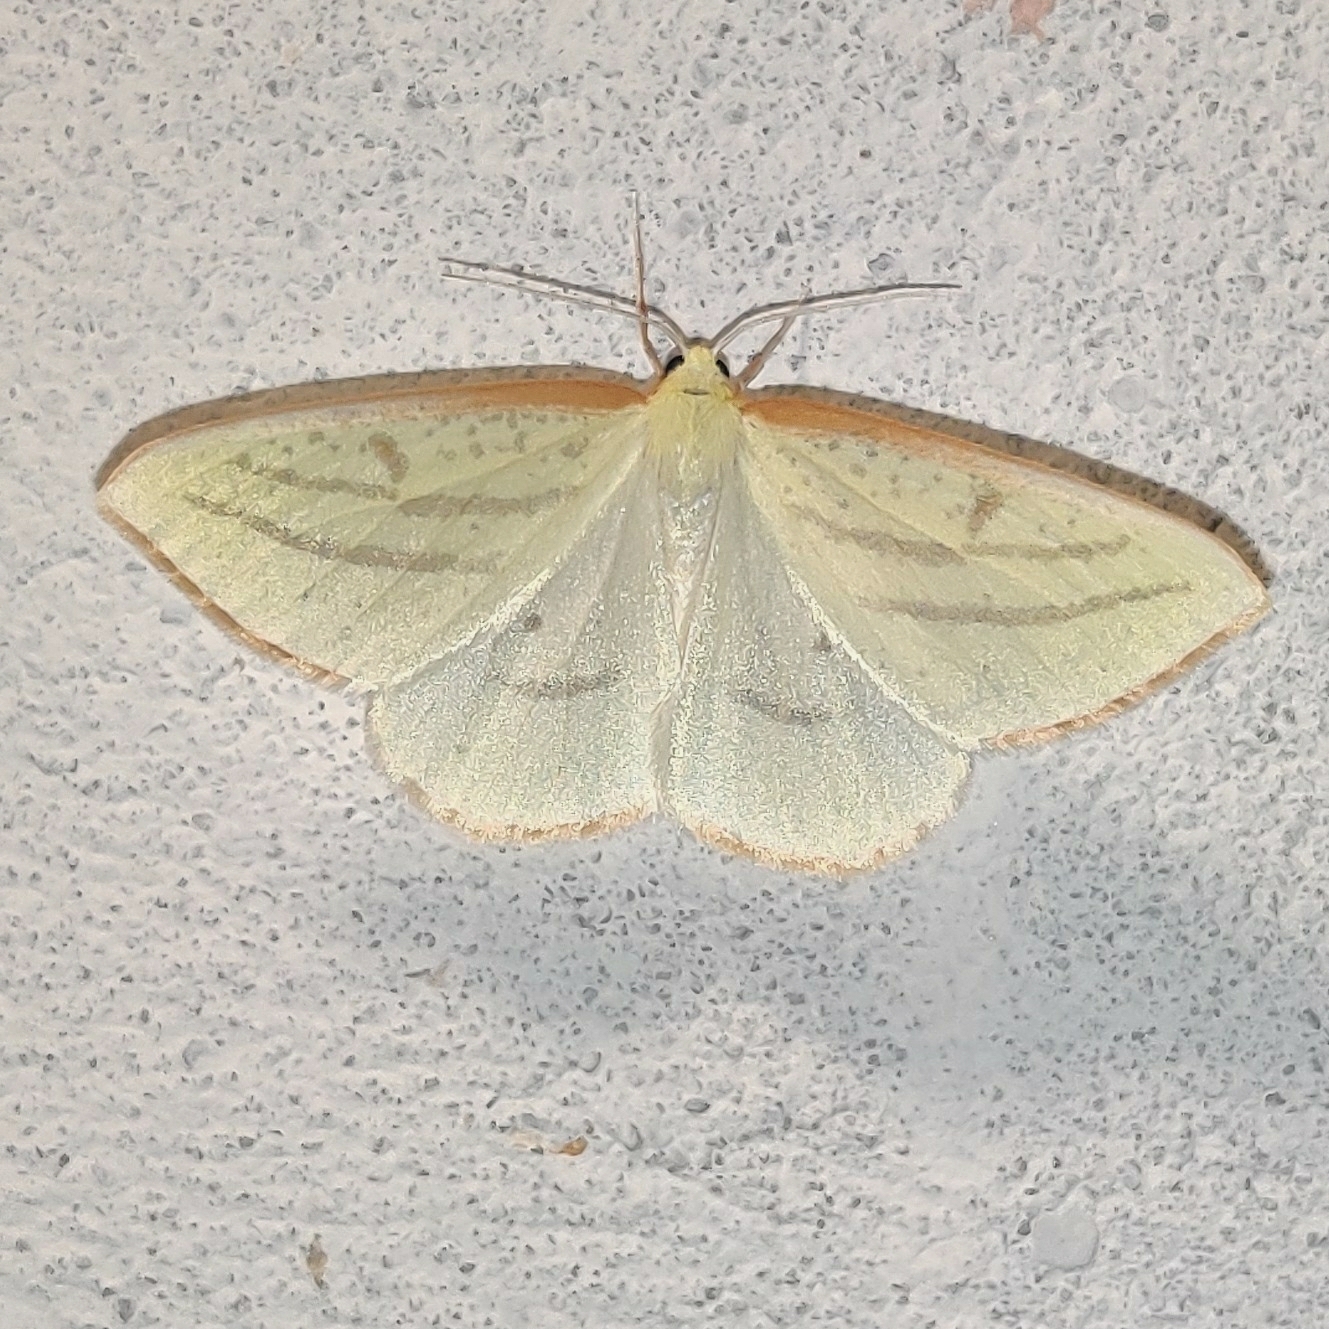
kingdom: Animalia
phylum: Arthropoda
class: Insecta
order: Lepidoptera
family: Geometridae
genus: Sirinopteryx
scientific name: Sirinopteryx ablunata
